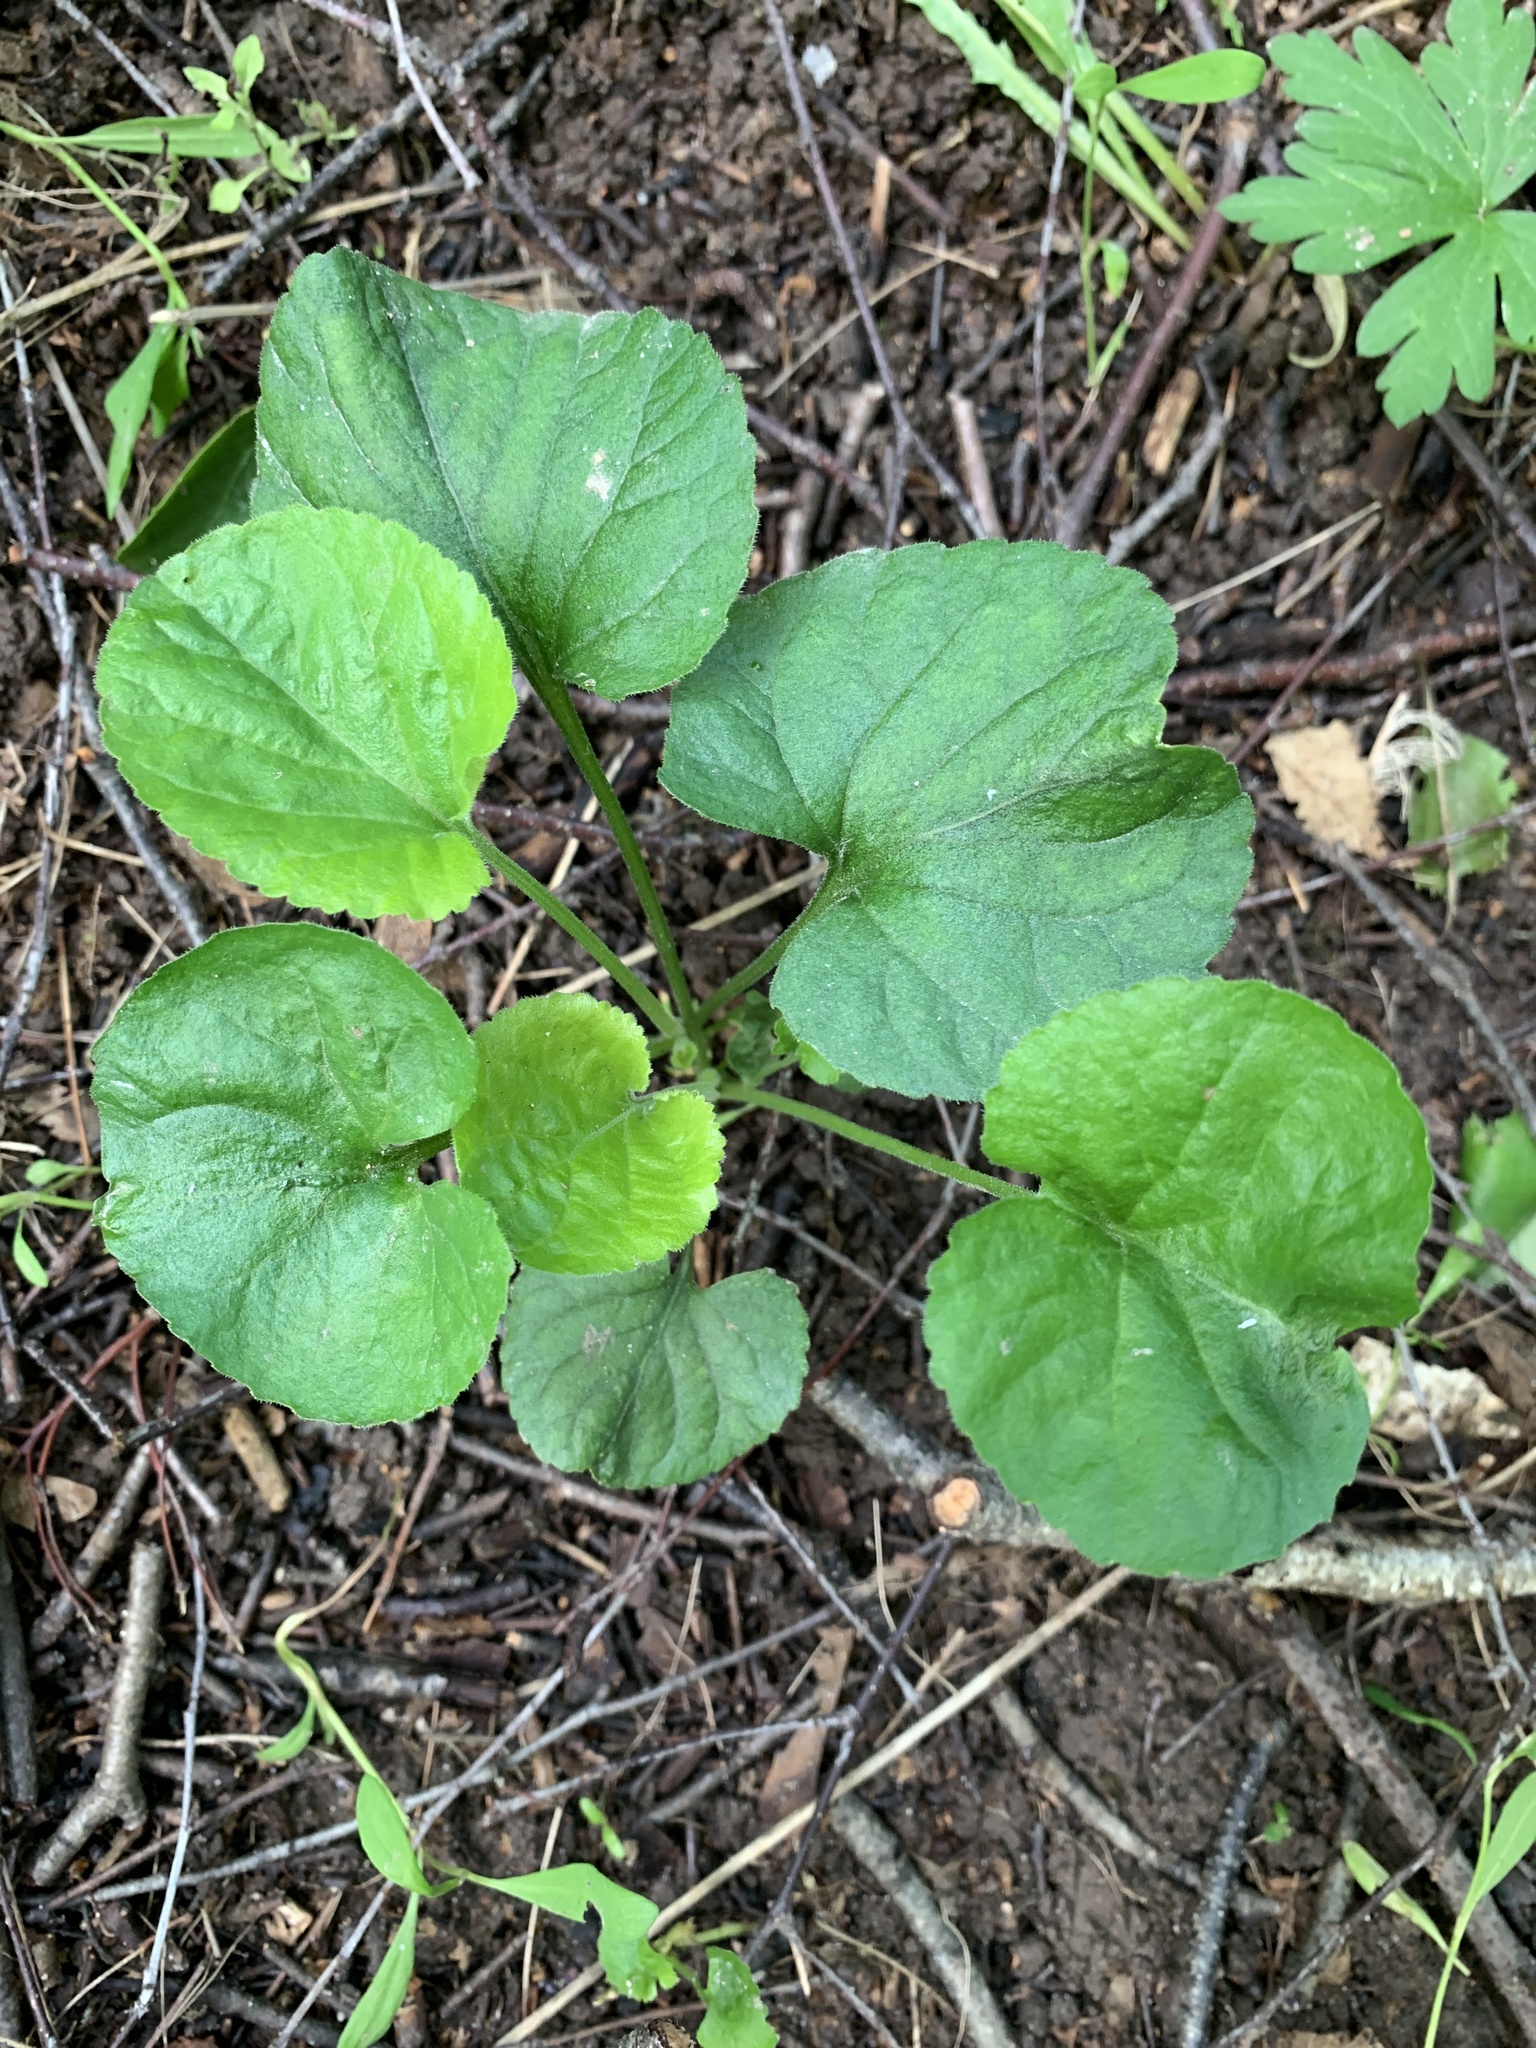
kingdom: Plantae
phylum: Tracheophyta
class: Magnoliopsida
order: Malpighiales
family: Violaceae
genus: Viola
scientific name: Viola odorata
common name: Sweet violet
